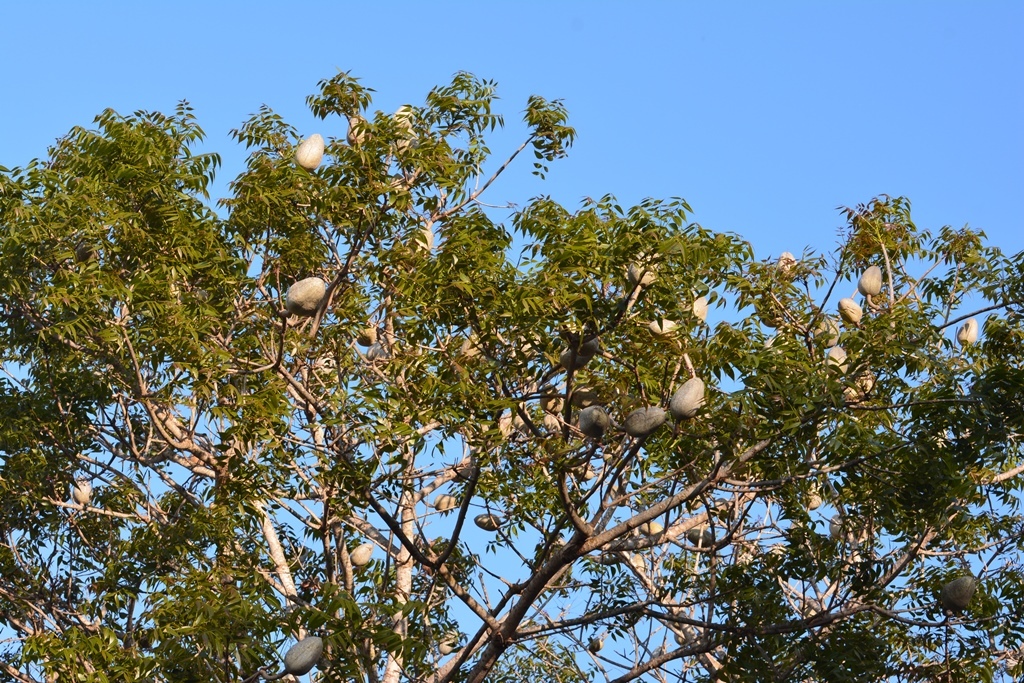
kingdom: Plantae
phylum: Tracheophyta
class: Magnoliopsida
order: Sapindales
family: Meliaceae
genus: Swietenia
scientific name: Swietenia humilis
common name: Pacific coast mahogany
